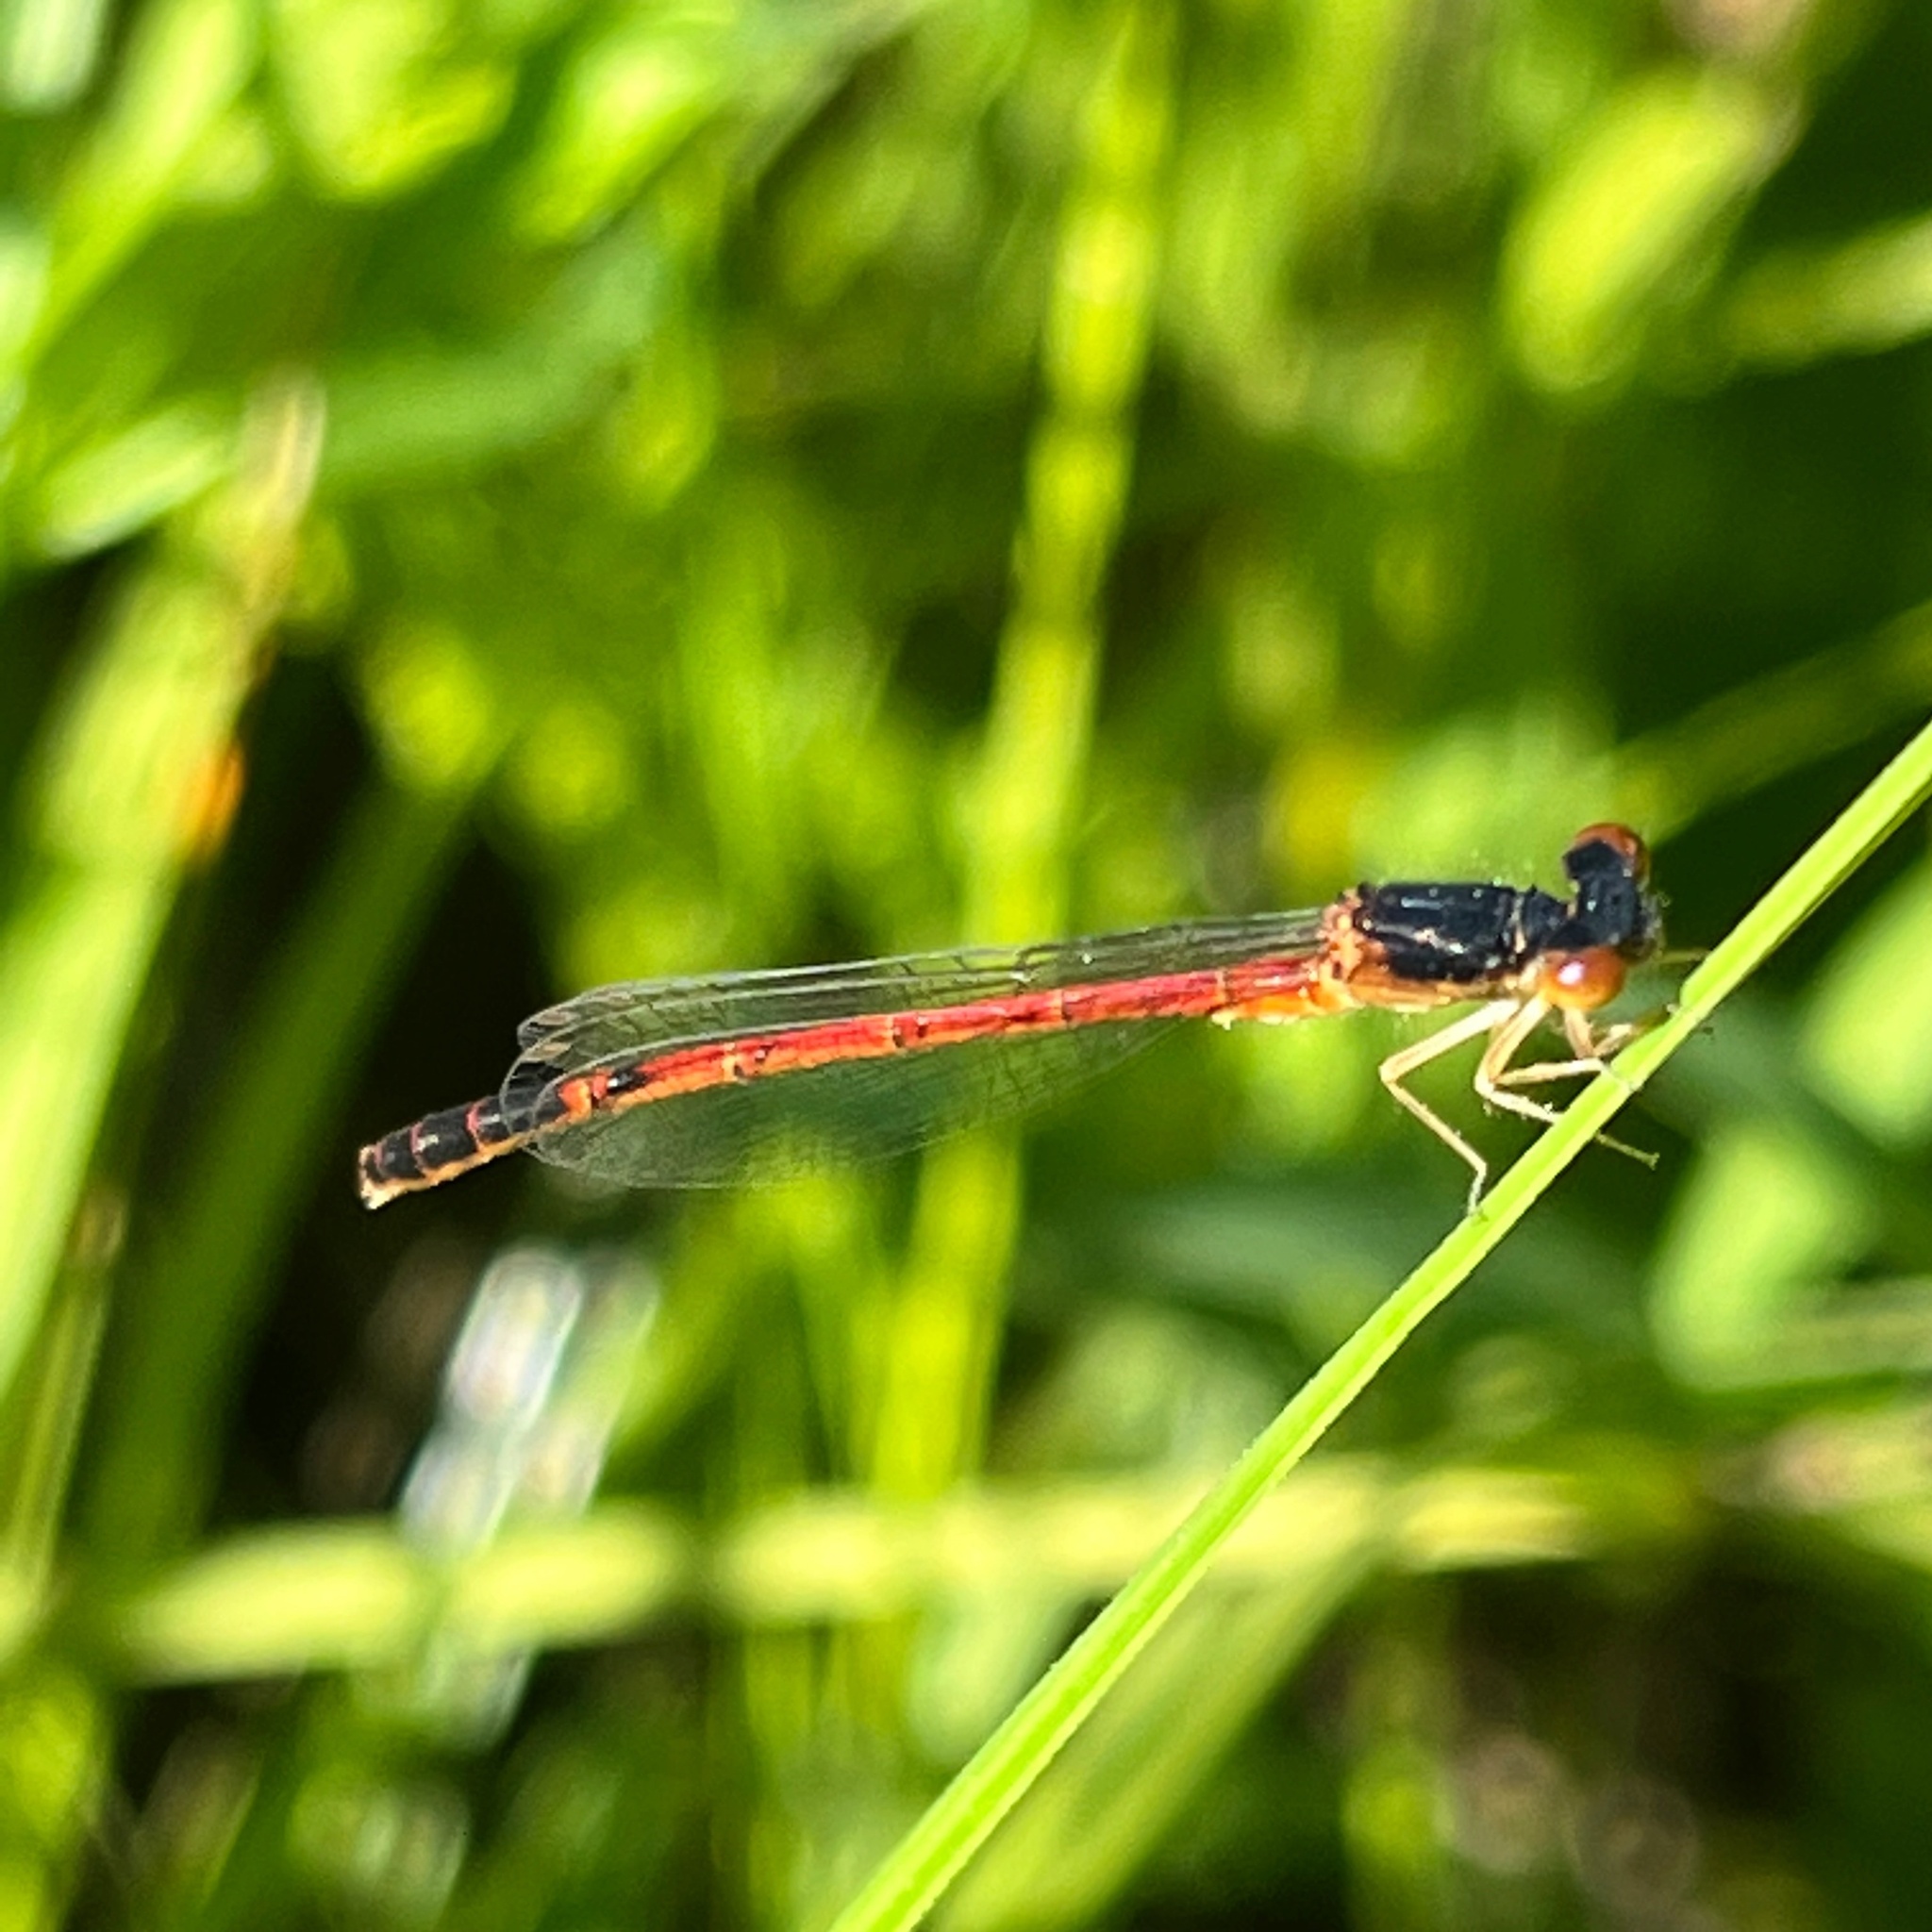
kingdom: Animalia
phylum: Arthropoda
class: Insecta
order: Odonata
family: Coenagrionidae
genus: Amphiagrion
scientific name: Amphiagrion saucium
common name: Eastern red damsel
